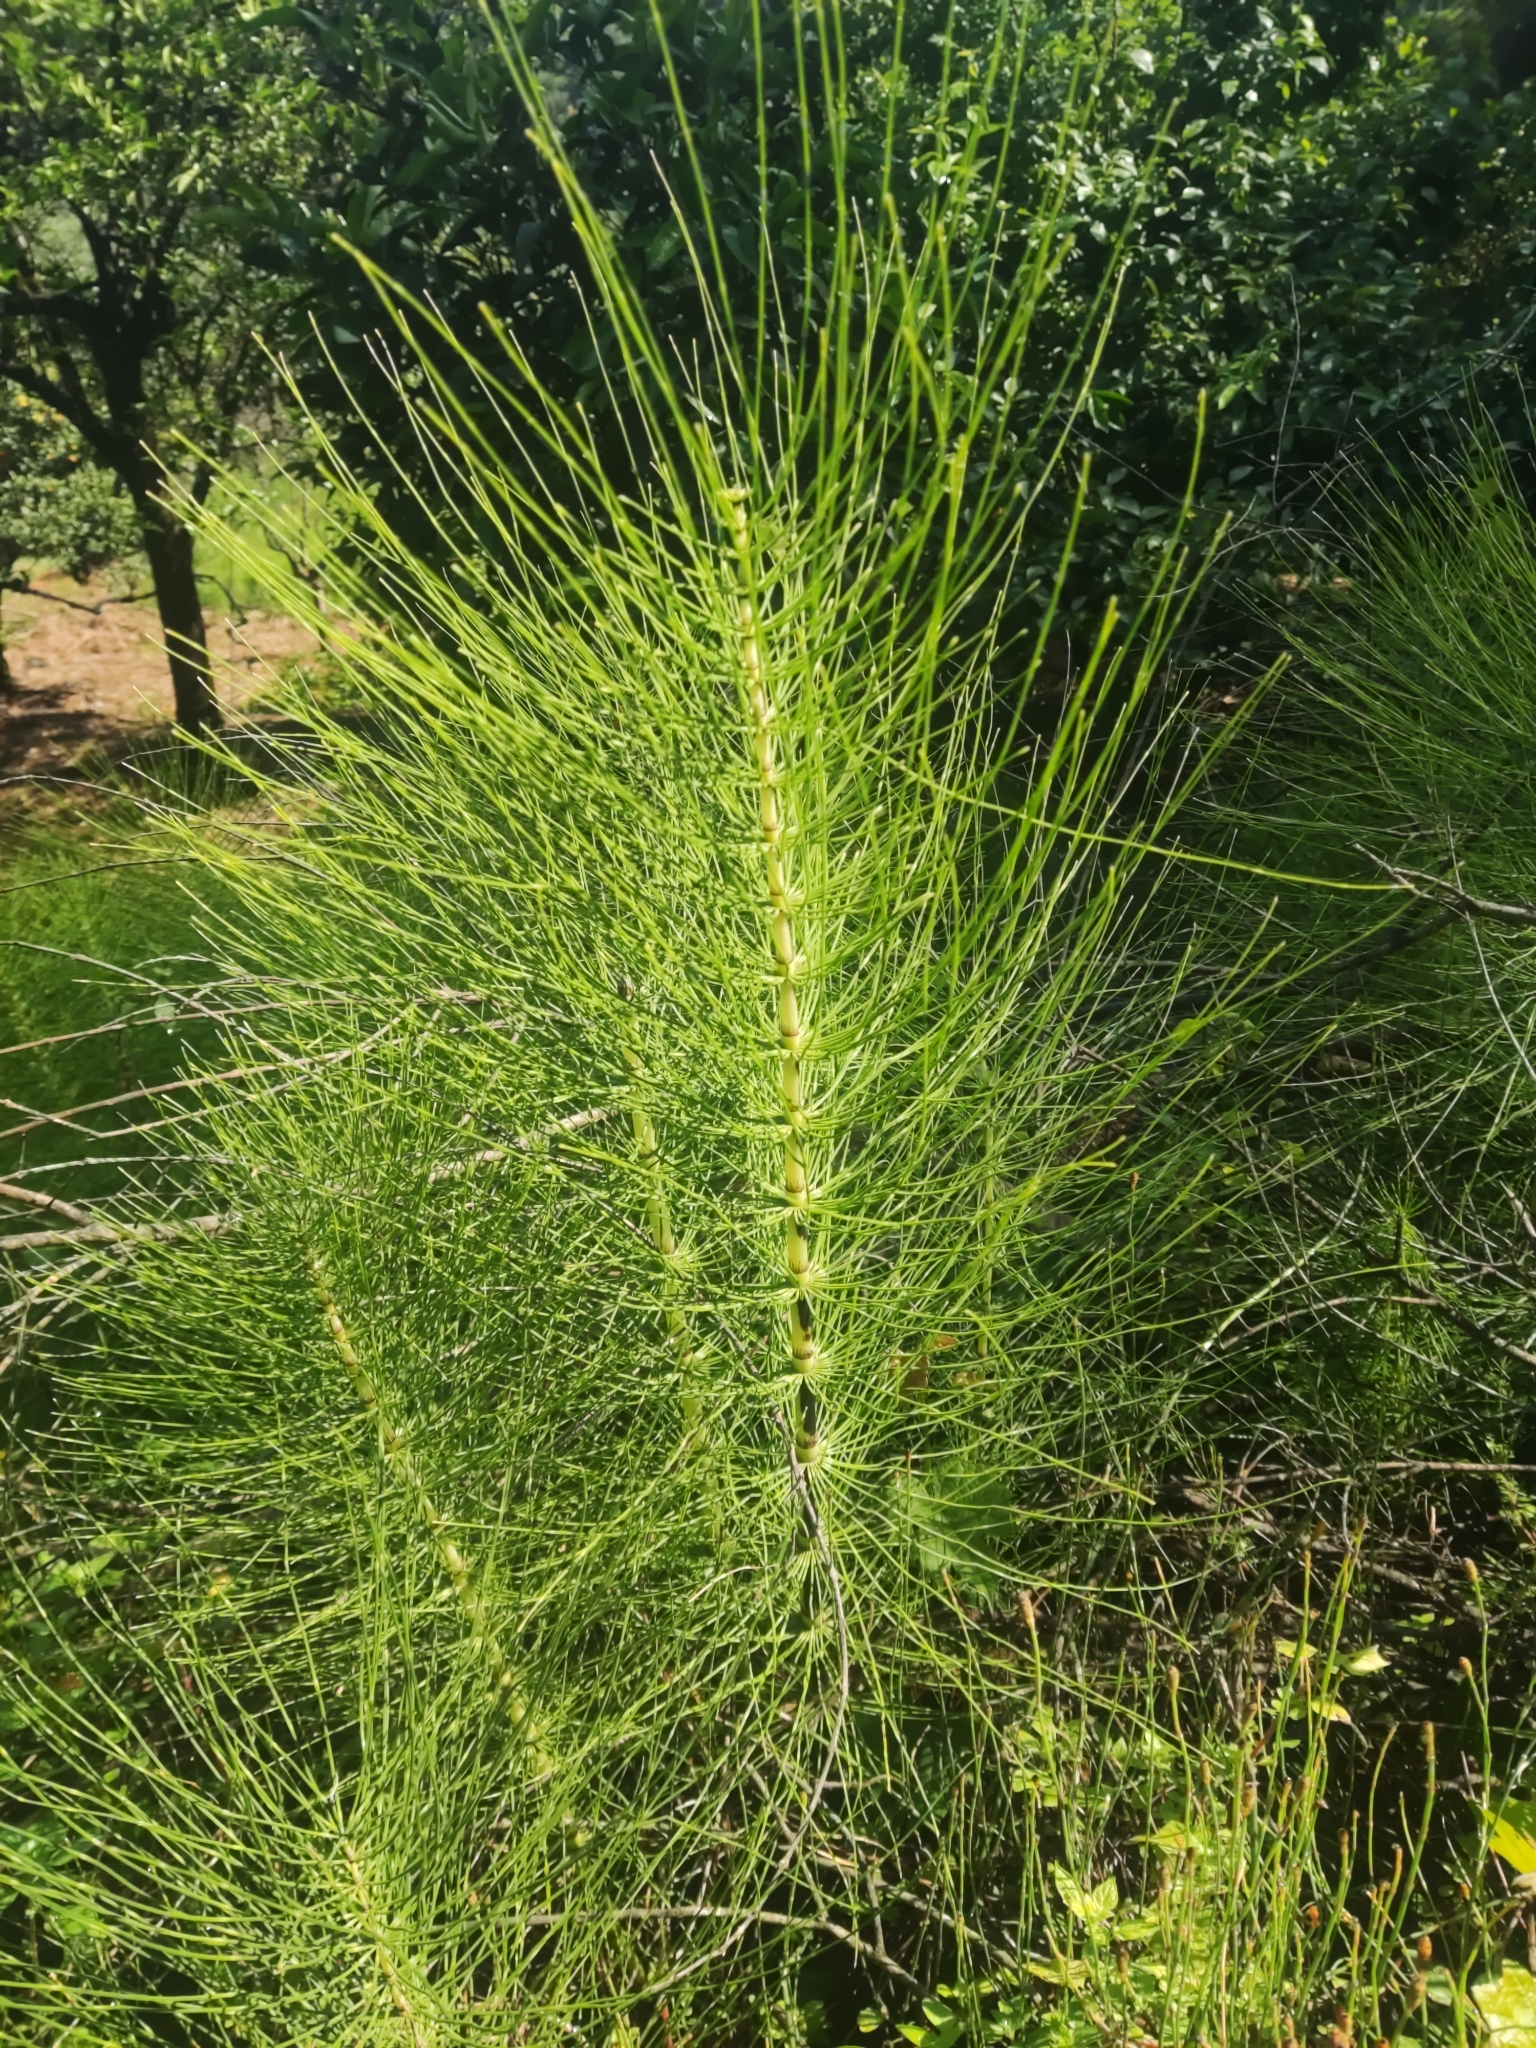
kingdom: Plantae
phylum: Tracheophyta
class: Polypodiopsida
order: Equisetales
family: Equisetaceae
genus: Equisetum
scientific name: Equisetum telmateia
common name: Great horsetail
